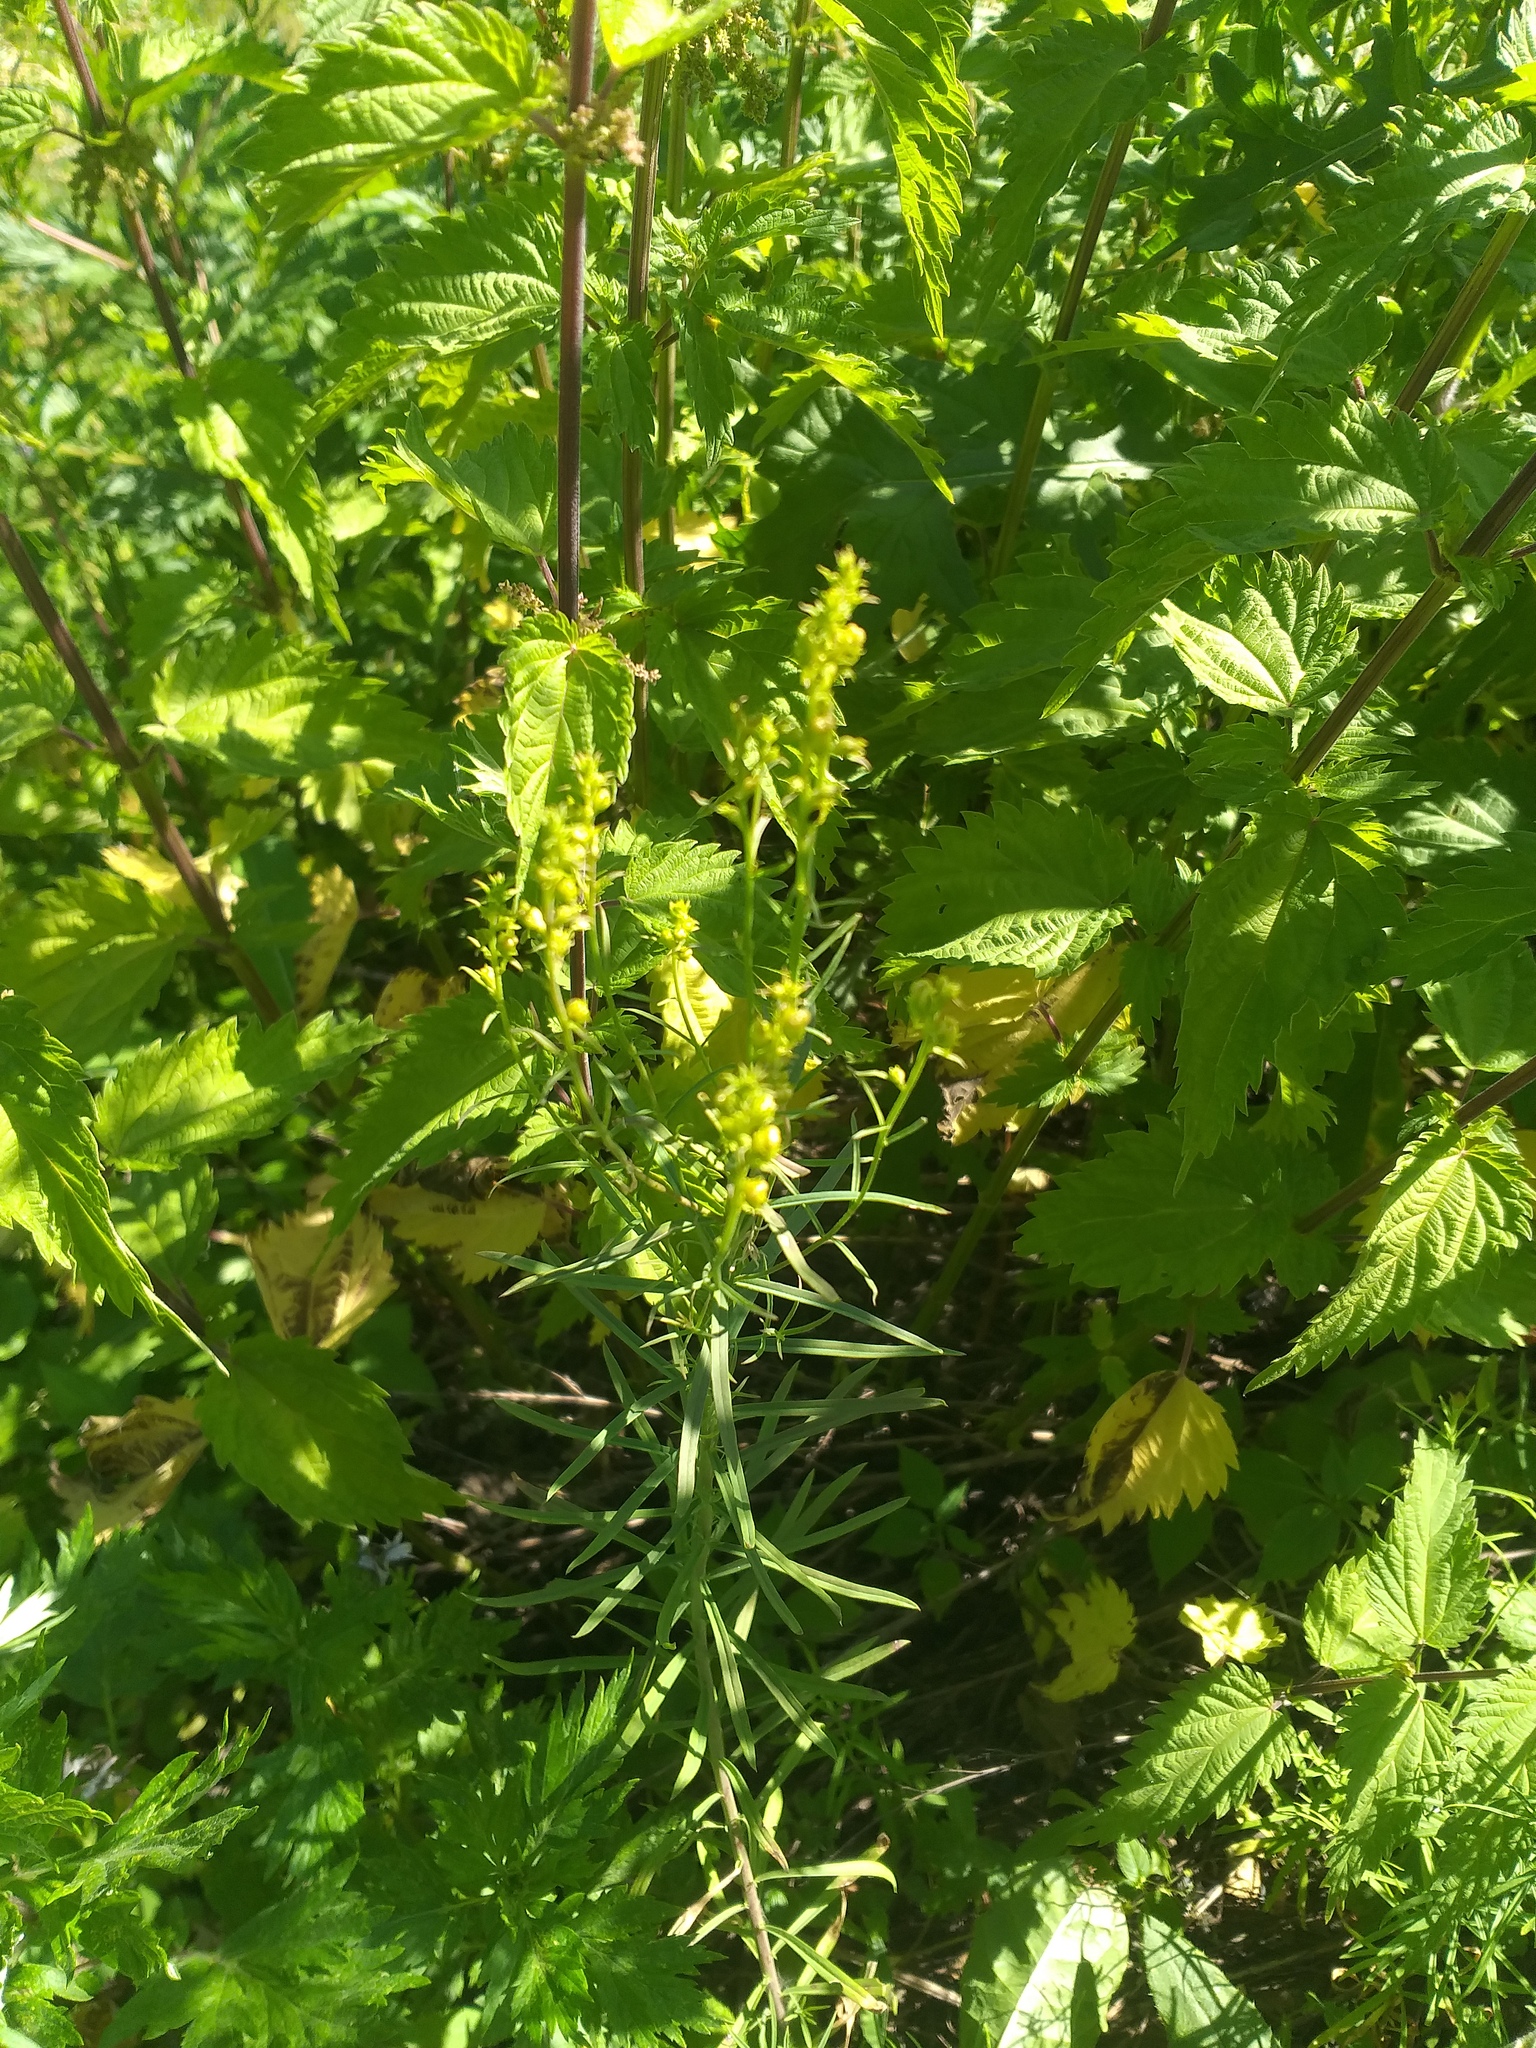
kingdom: Plantae
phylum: Tracheophyta
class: Magnoliopsida
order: Lamiales
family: Plantaginaceae
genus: Linaria
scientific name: Linaria vulgaris
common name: Butter and eggs
